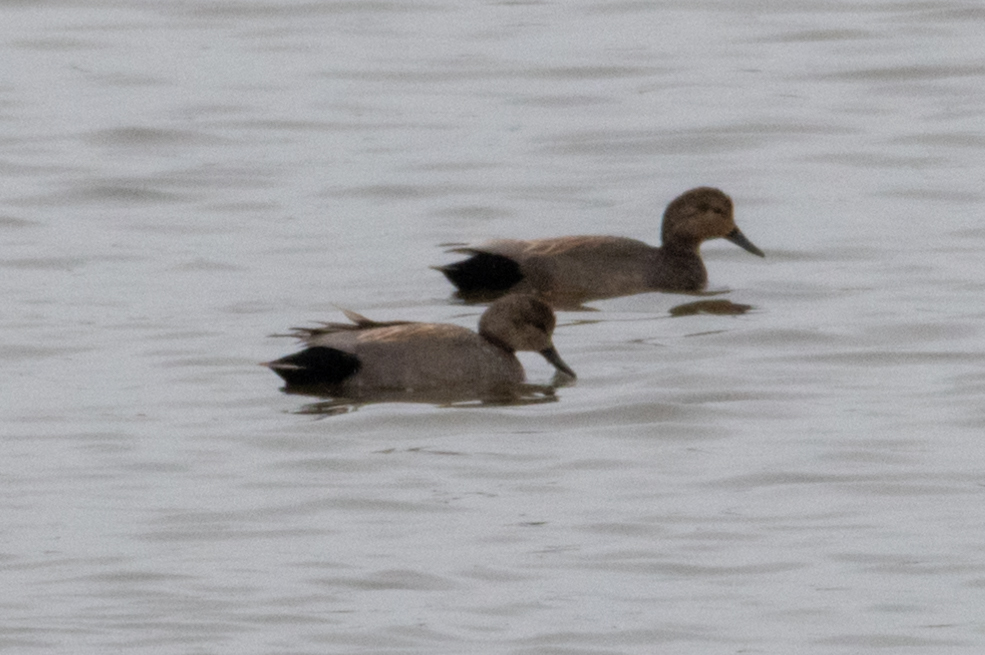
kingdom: Animalia
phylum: Chordata
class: Aves
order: Anseriformes
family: Anatidae
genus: Mareca
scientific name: Mareca strepera
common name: Gadwall
